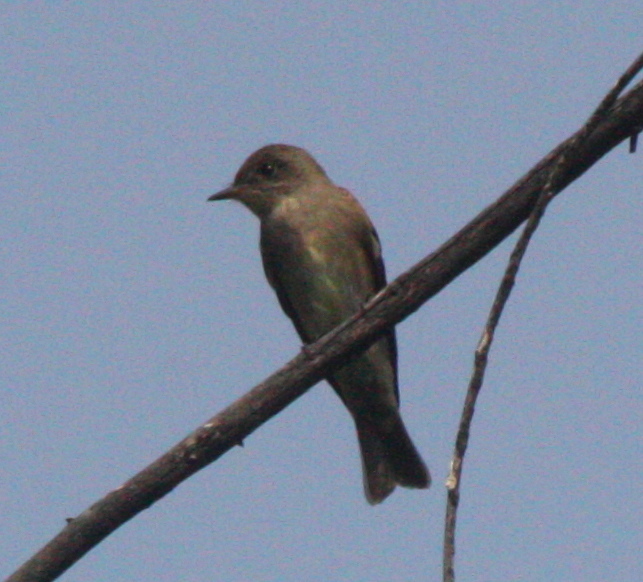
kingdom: Animalia
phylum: Chordata
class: Aves
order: Passeriformes
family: Tyrannidae
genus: Contopus
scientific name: Contopus pertinax
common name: Greater pewee
